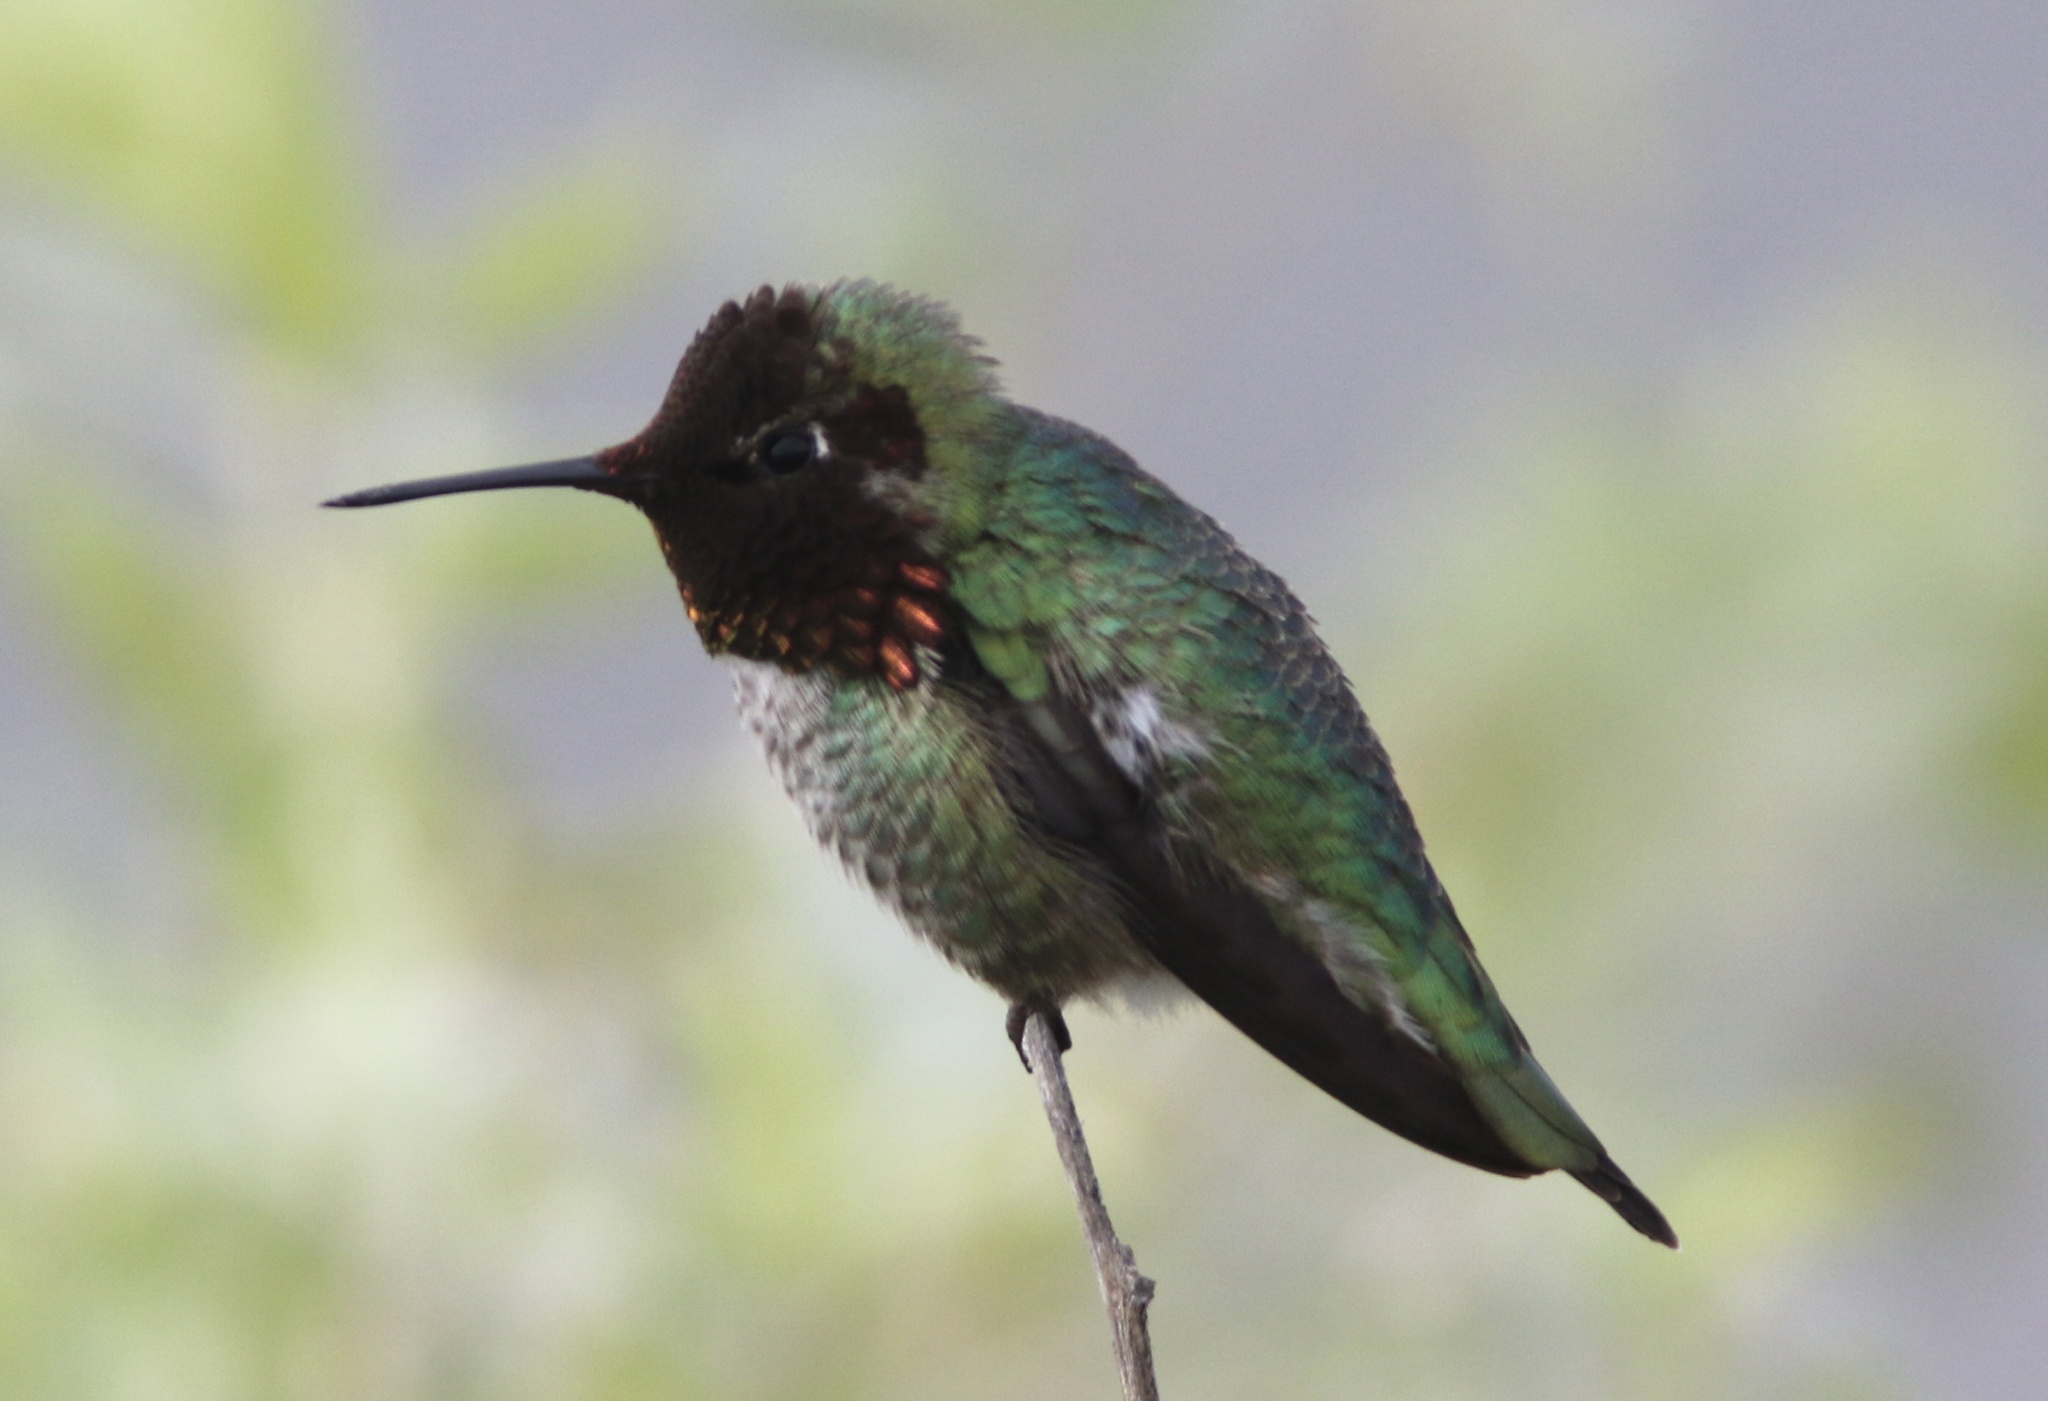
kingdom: Animalia
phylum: Chordata
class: Aves
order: Apodiformes
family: Trochilidae
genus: Calypte
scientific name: Calypte anna
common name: Anna's hummingbird
